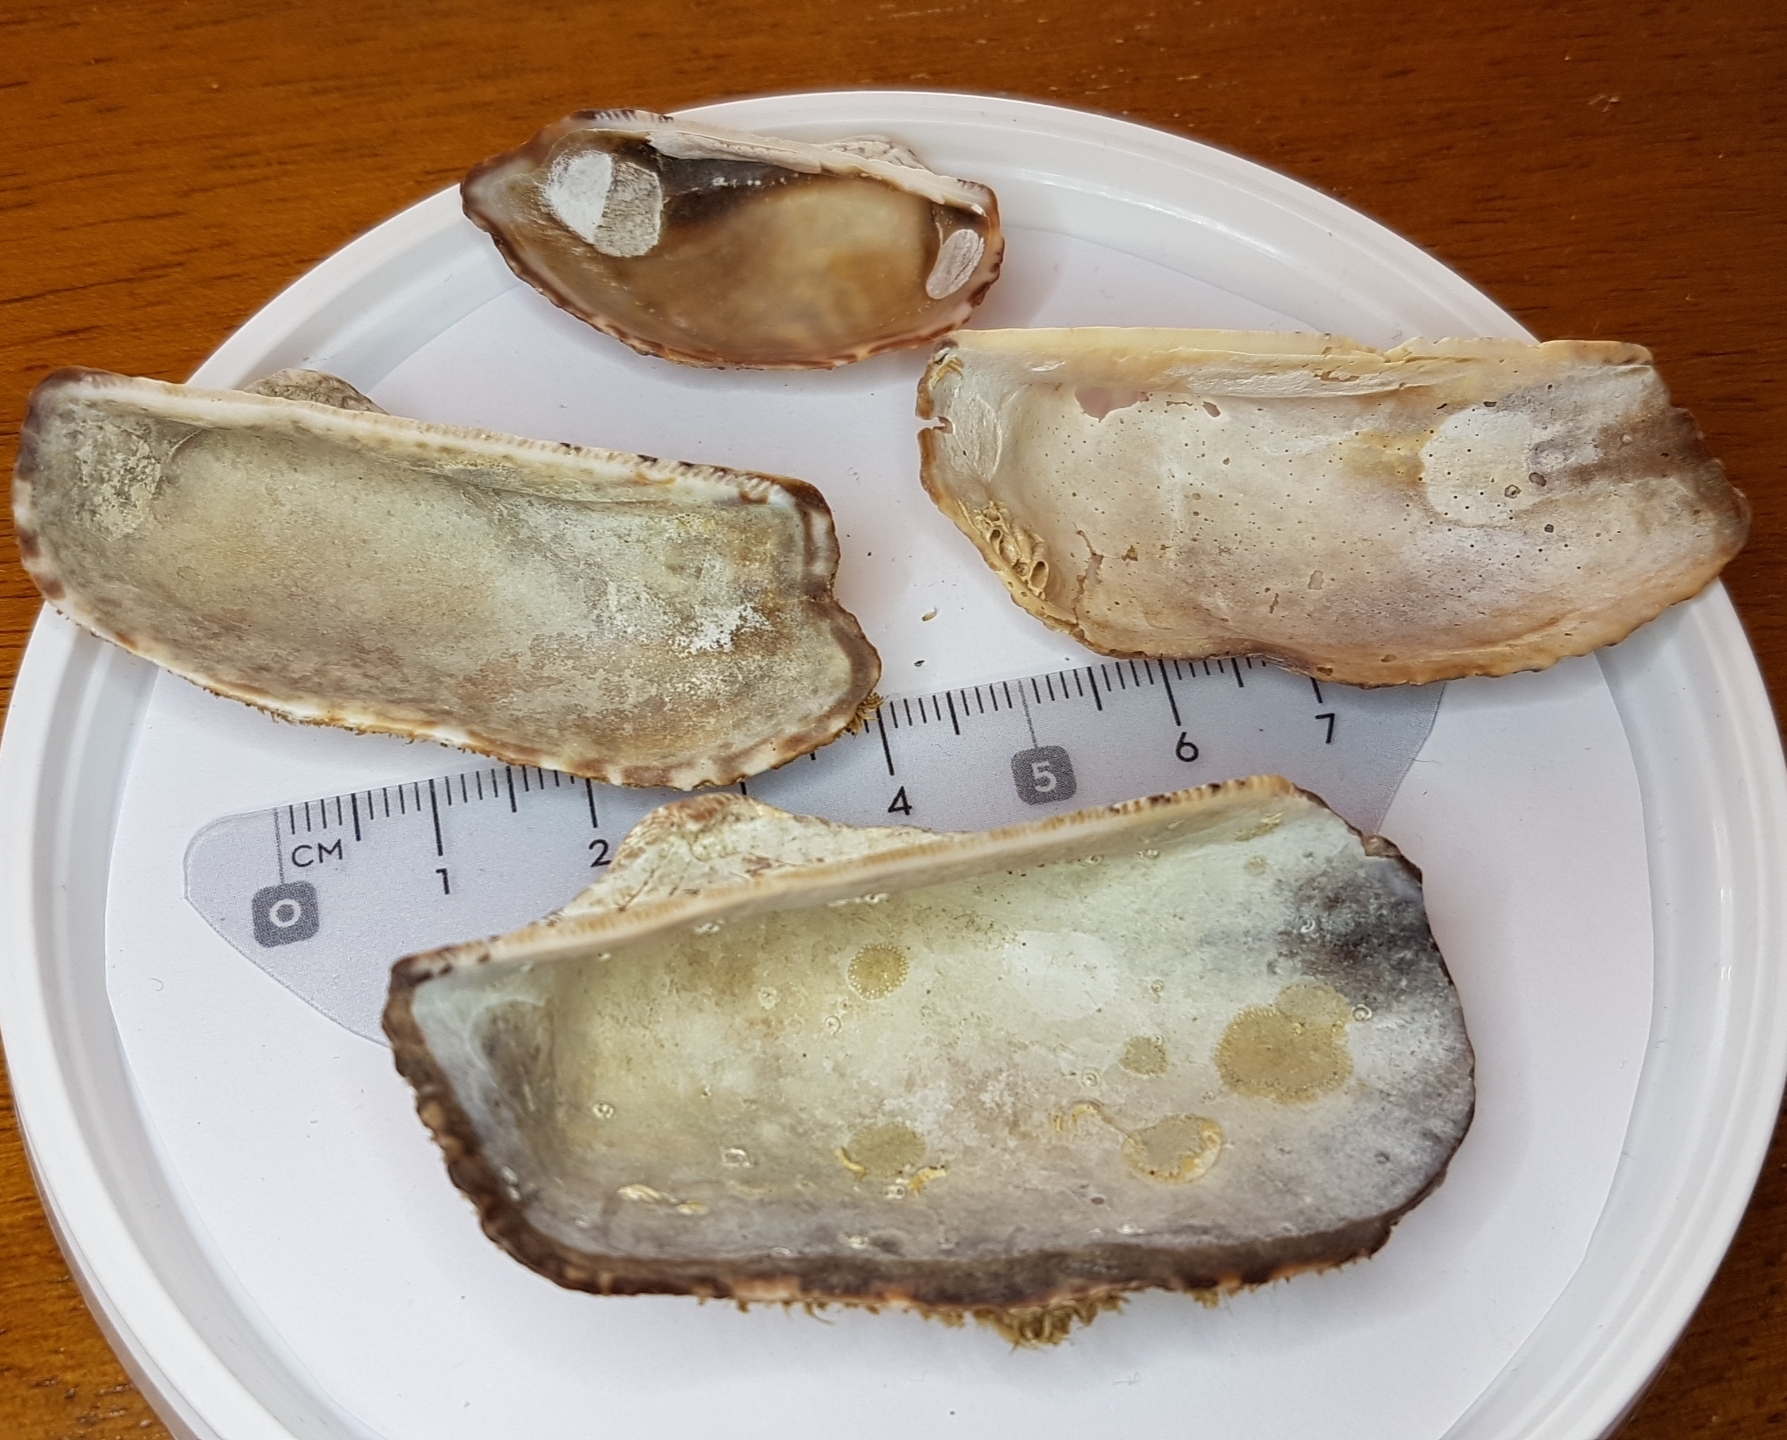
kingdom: Animalia
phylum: Mollusca
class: Bivalvia
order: Arcida
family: Arcidae
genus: Arca
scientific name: Arca noae
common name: Noah's arch
